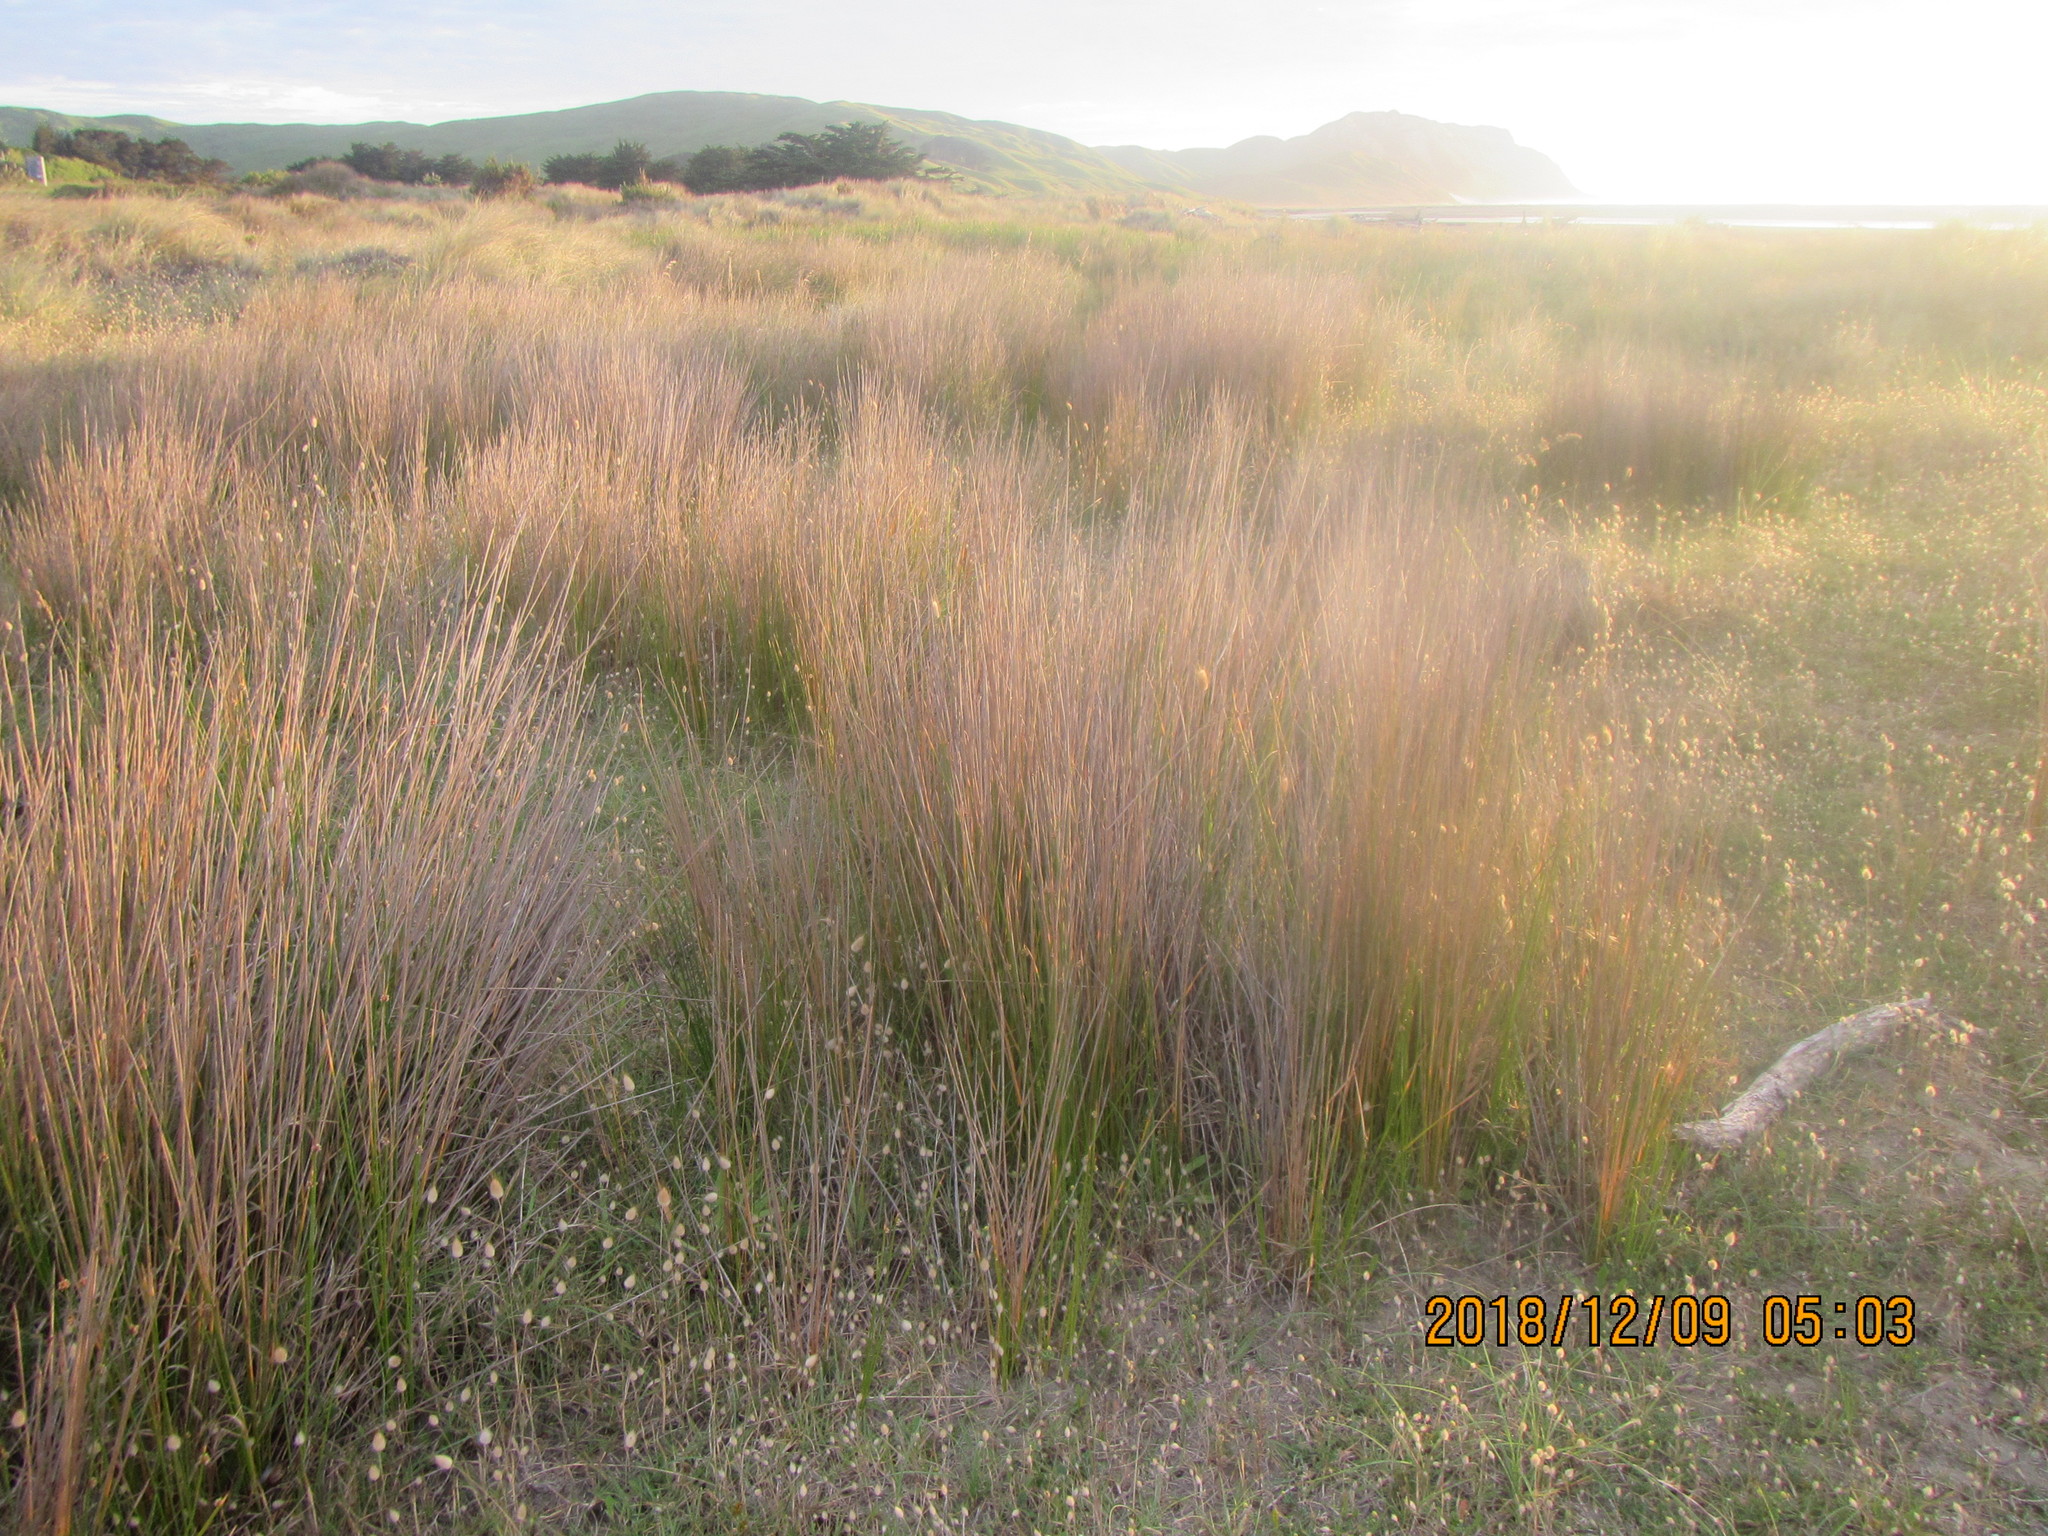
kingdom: Plantae
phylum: Tracheophyta
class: Liliopsida
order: Poales
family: Cyperaceae
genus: Ficinia
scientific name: Ficinia nodosa
